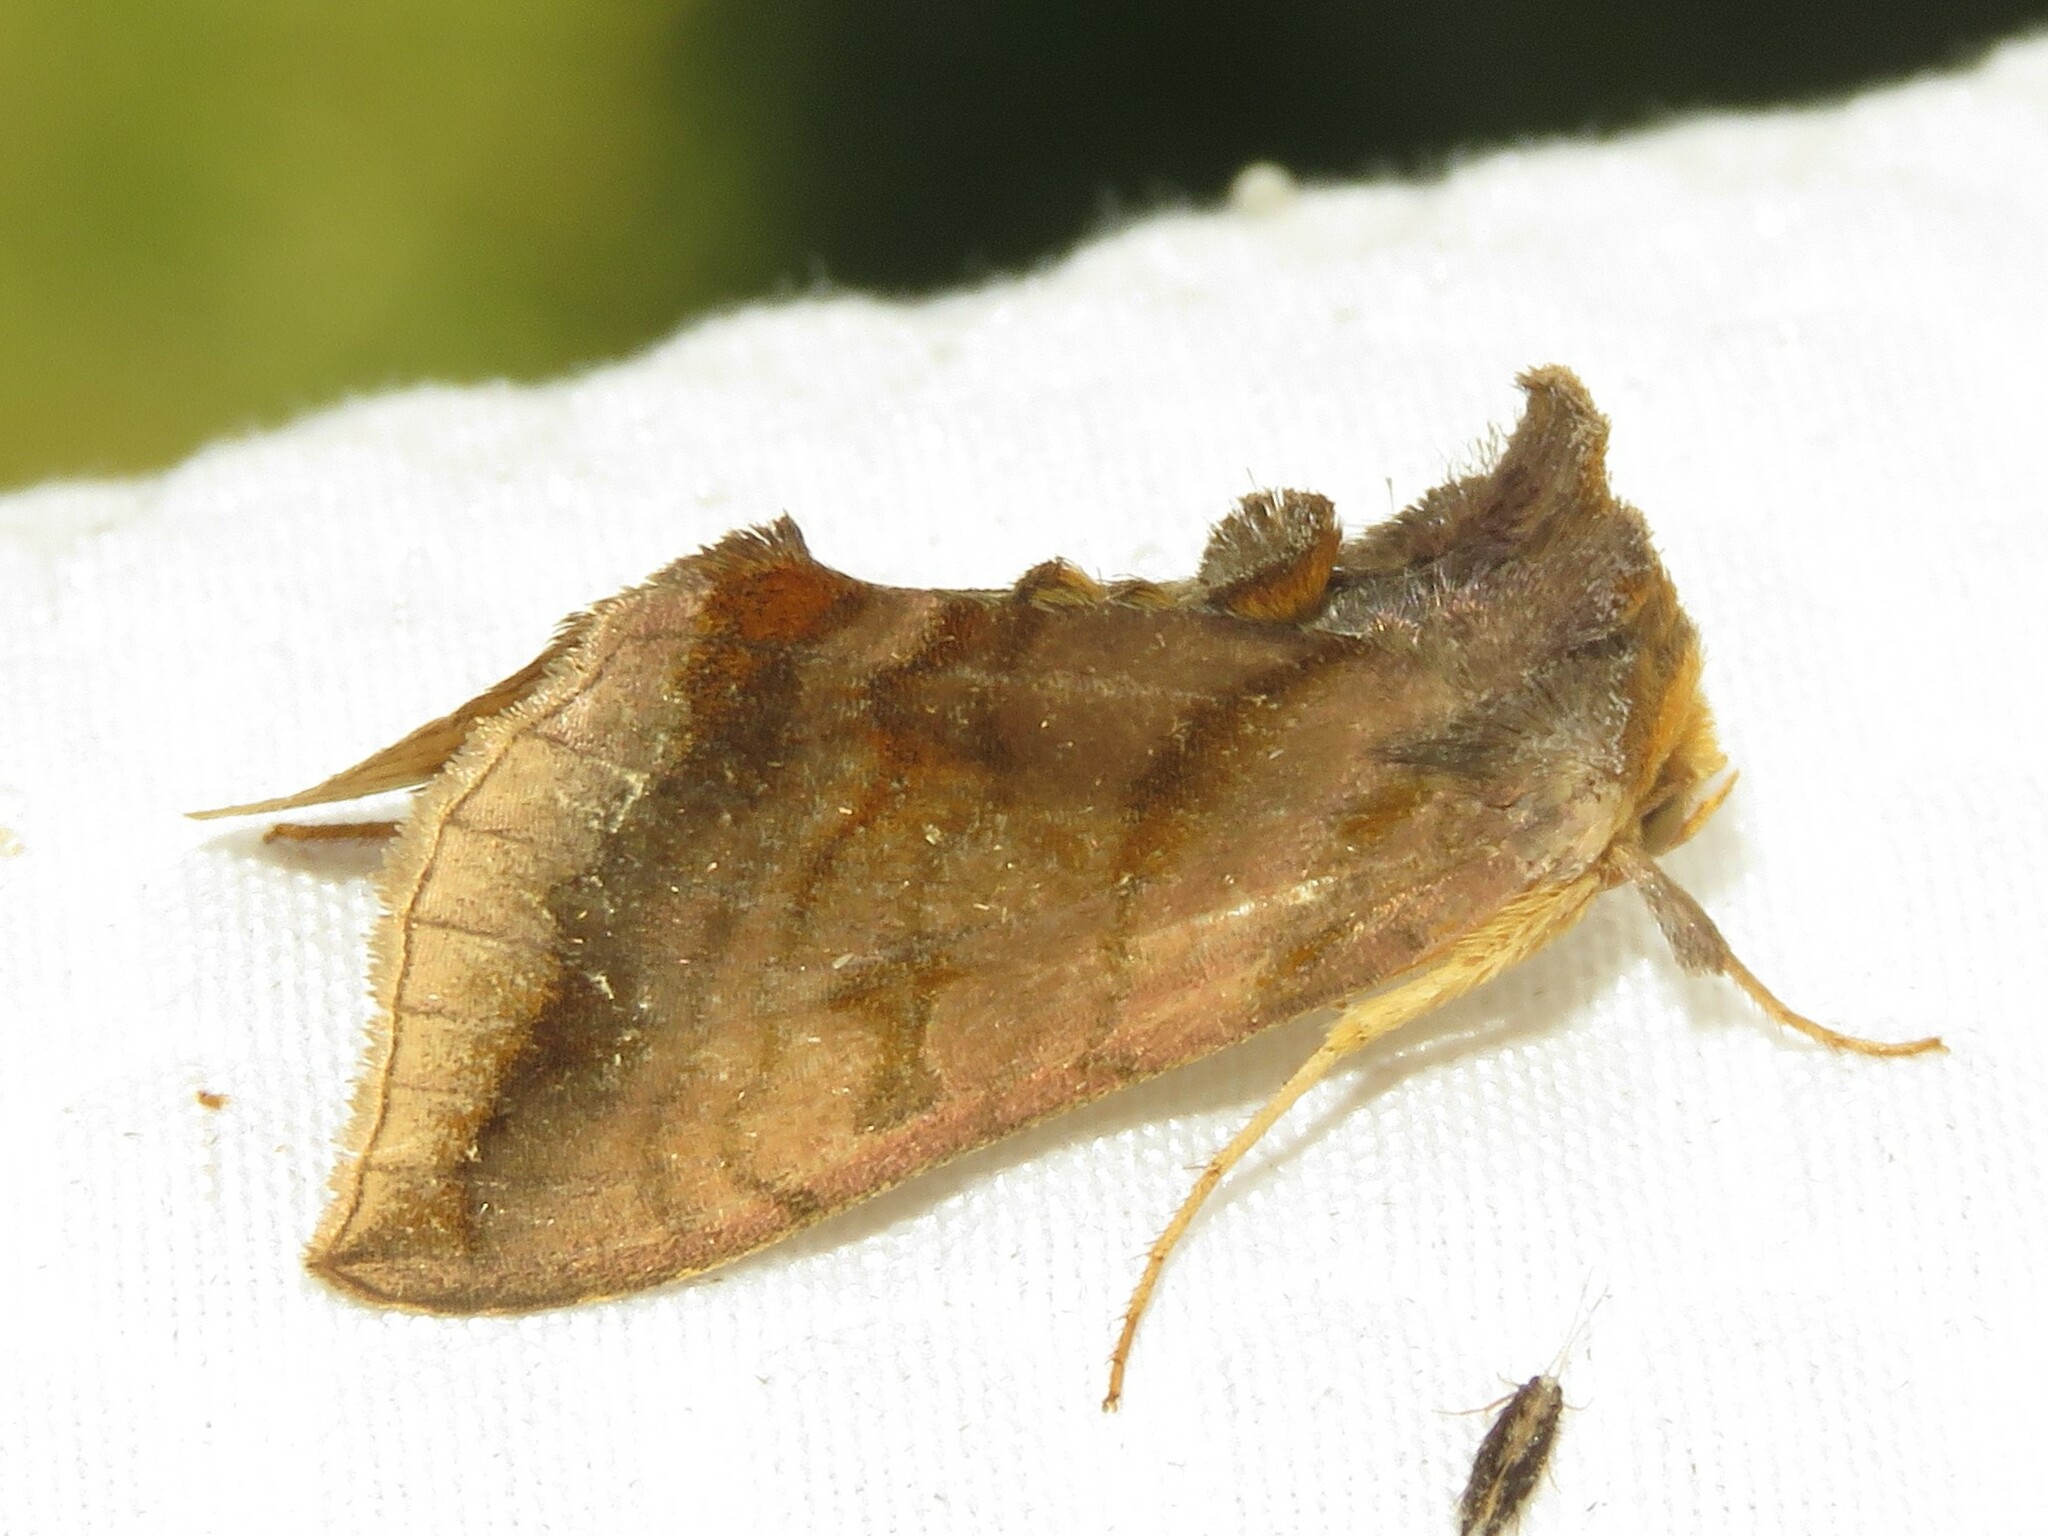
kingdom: Animalia
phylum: Arthropoda
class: Insecta
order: Lepidoptera
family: Noctuidae
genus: Allagrapha
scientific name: Allagrapha aerea
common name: Unspotted looper moth
